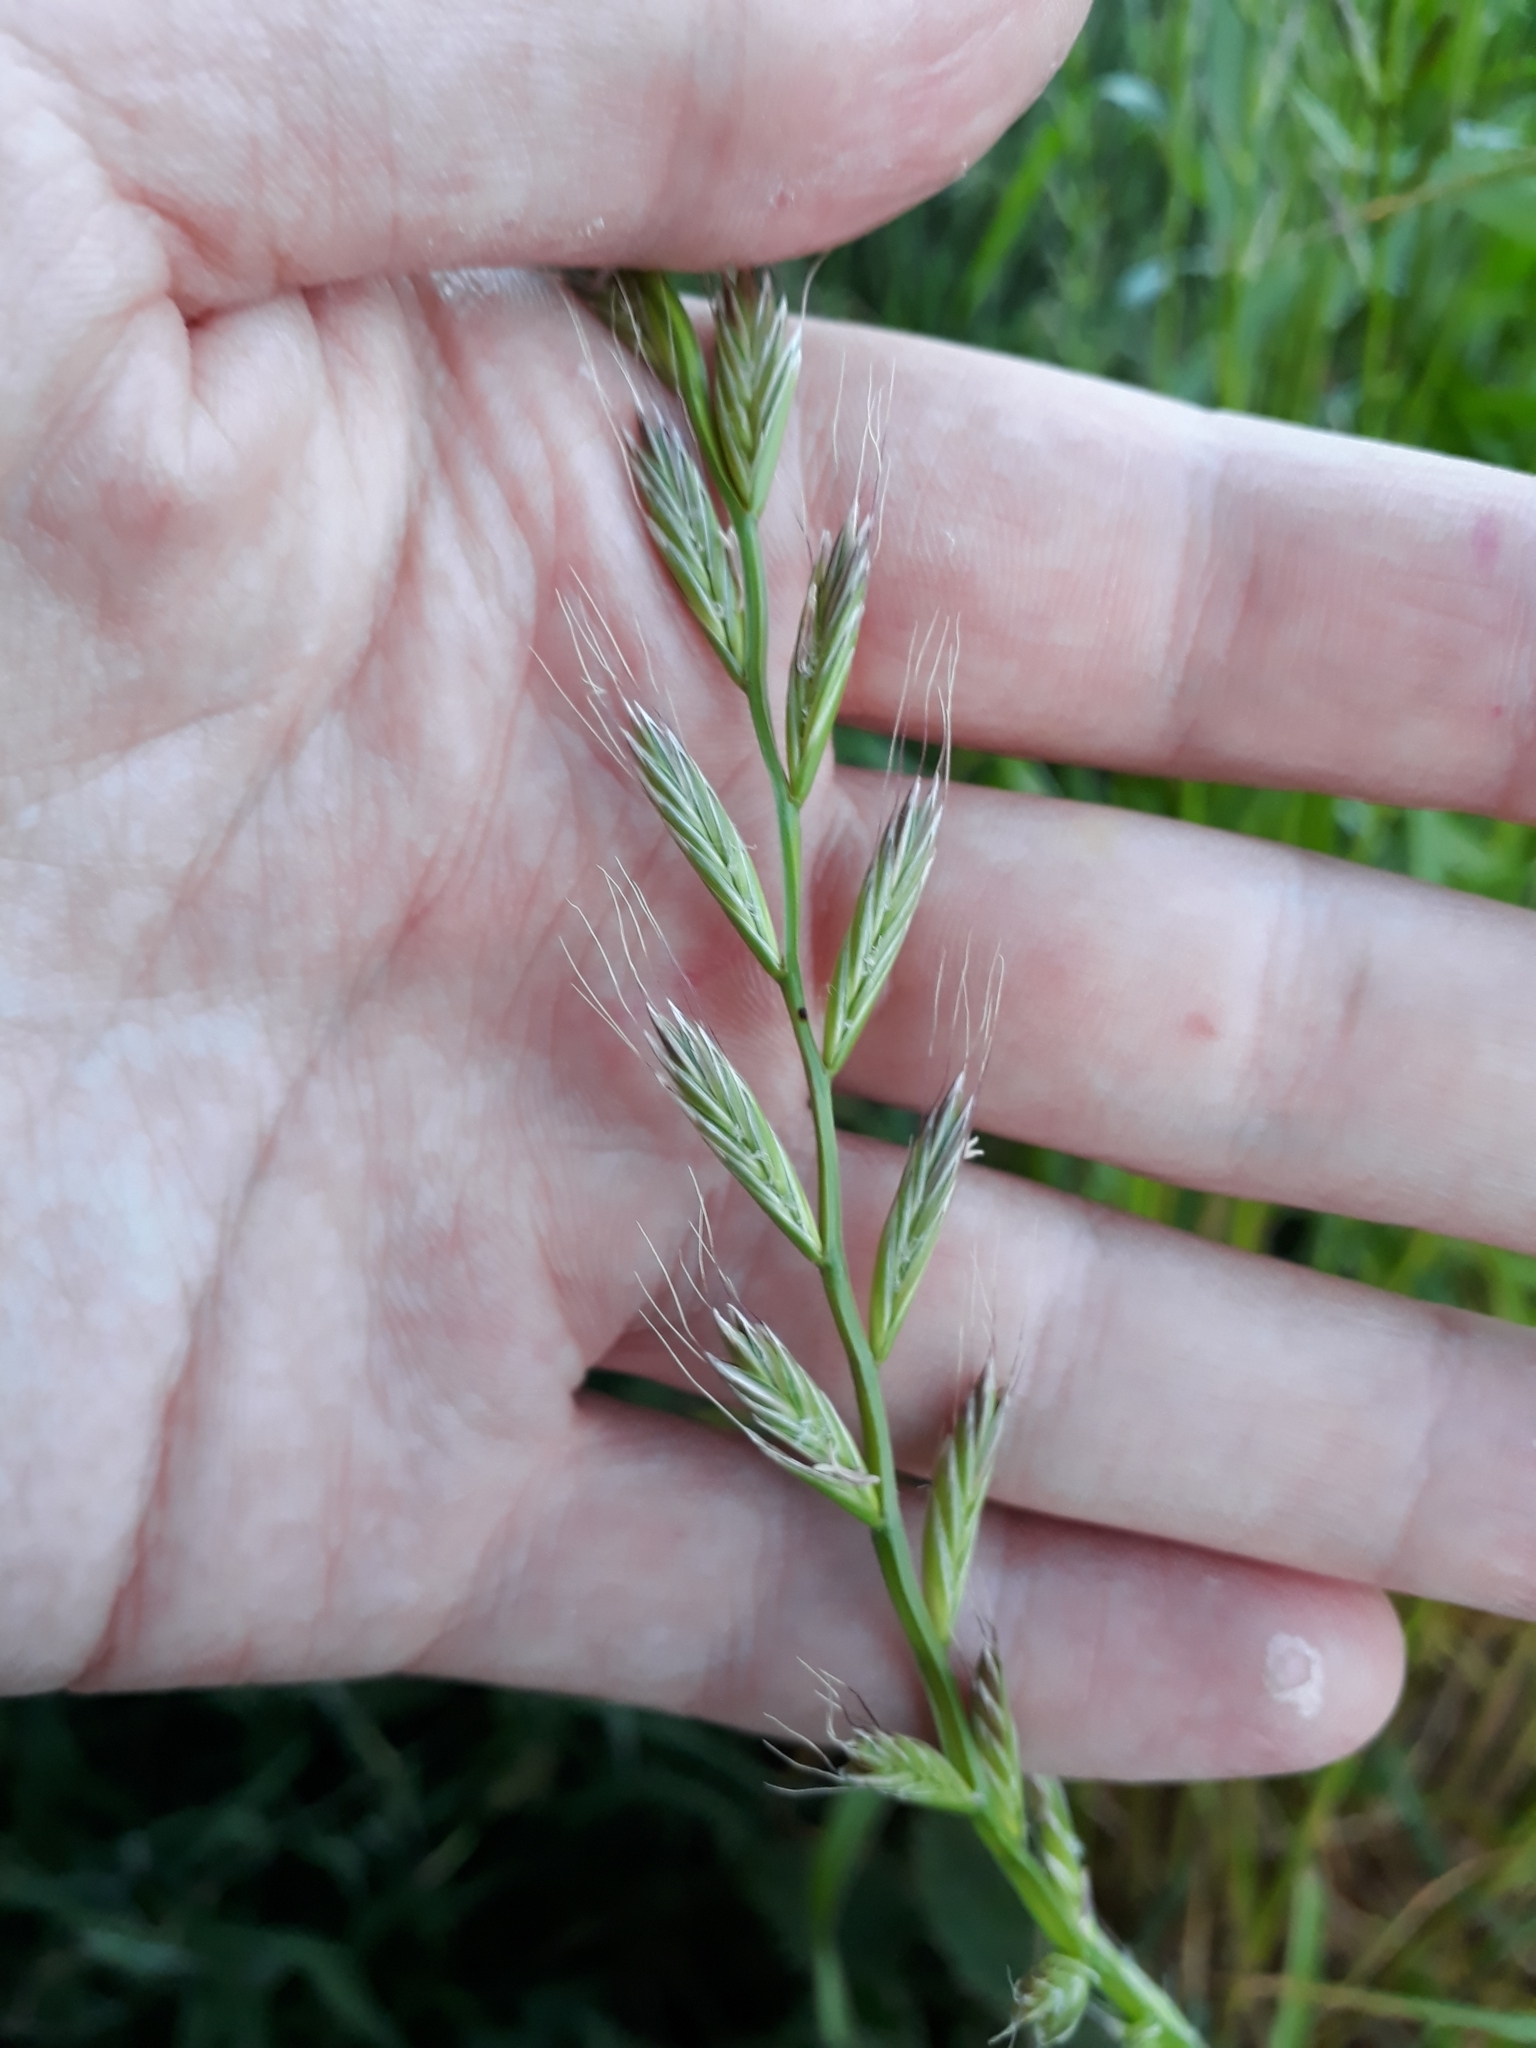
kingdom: Plantae
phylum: Tracheophyta
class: Liliopsida
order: Poales
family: Poaceae
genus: Lolium
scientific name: Lolium multiflorum
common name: Annual ryegrass
